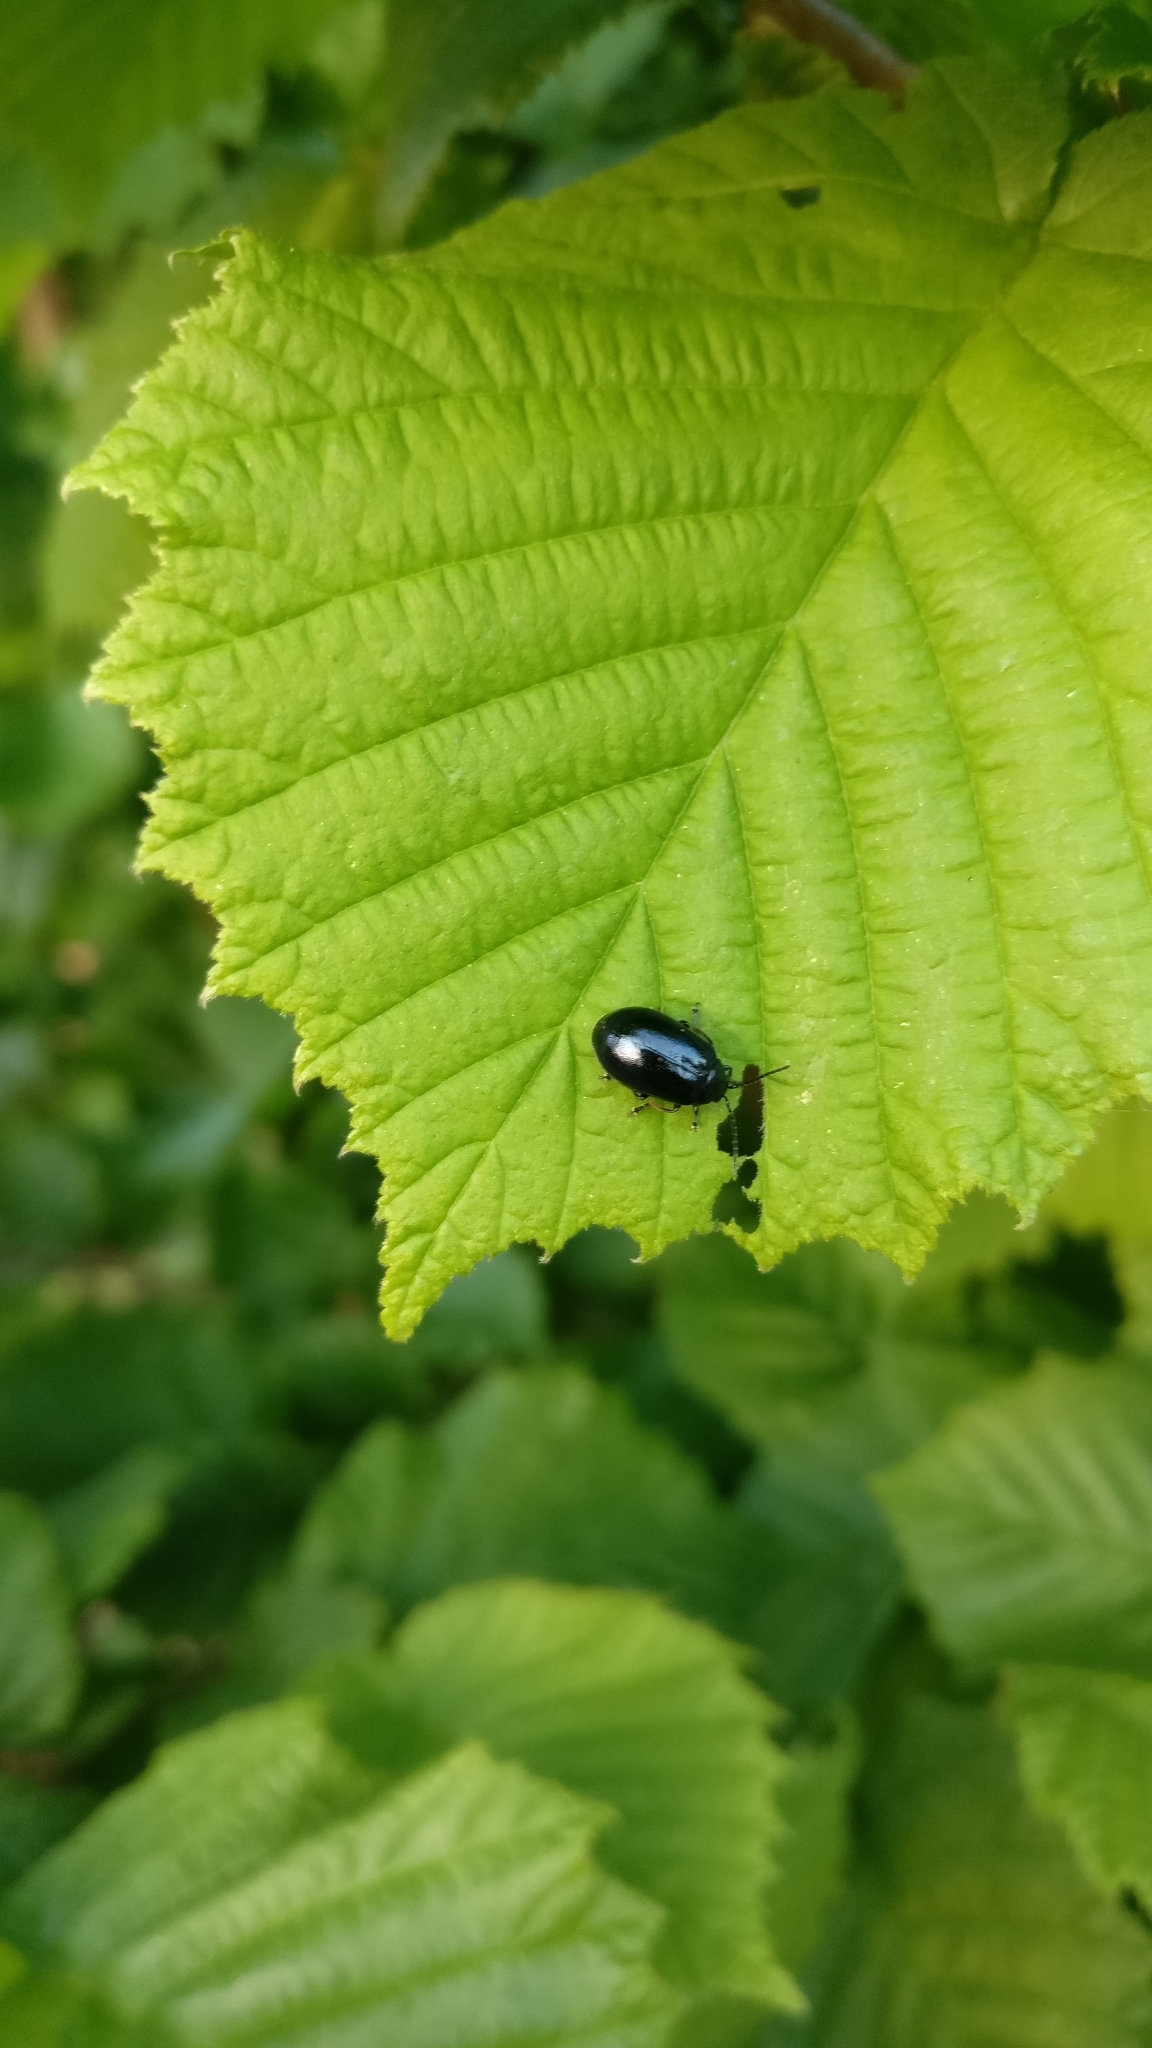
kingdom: Animalia
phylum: Arthropoda
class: Insecta
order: Coleoptera
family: Chrysomelidae
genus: Agelastica
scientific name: Agelastica alni
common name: Alder leaf beetle
